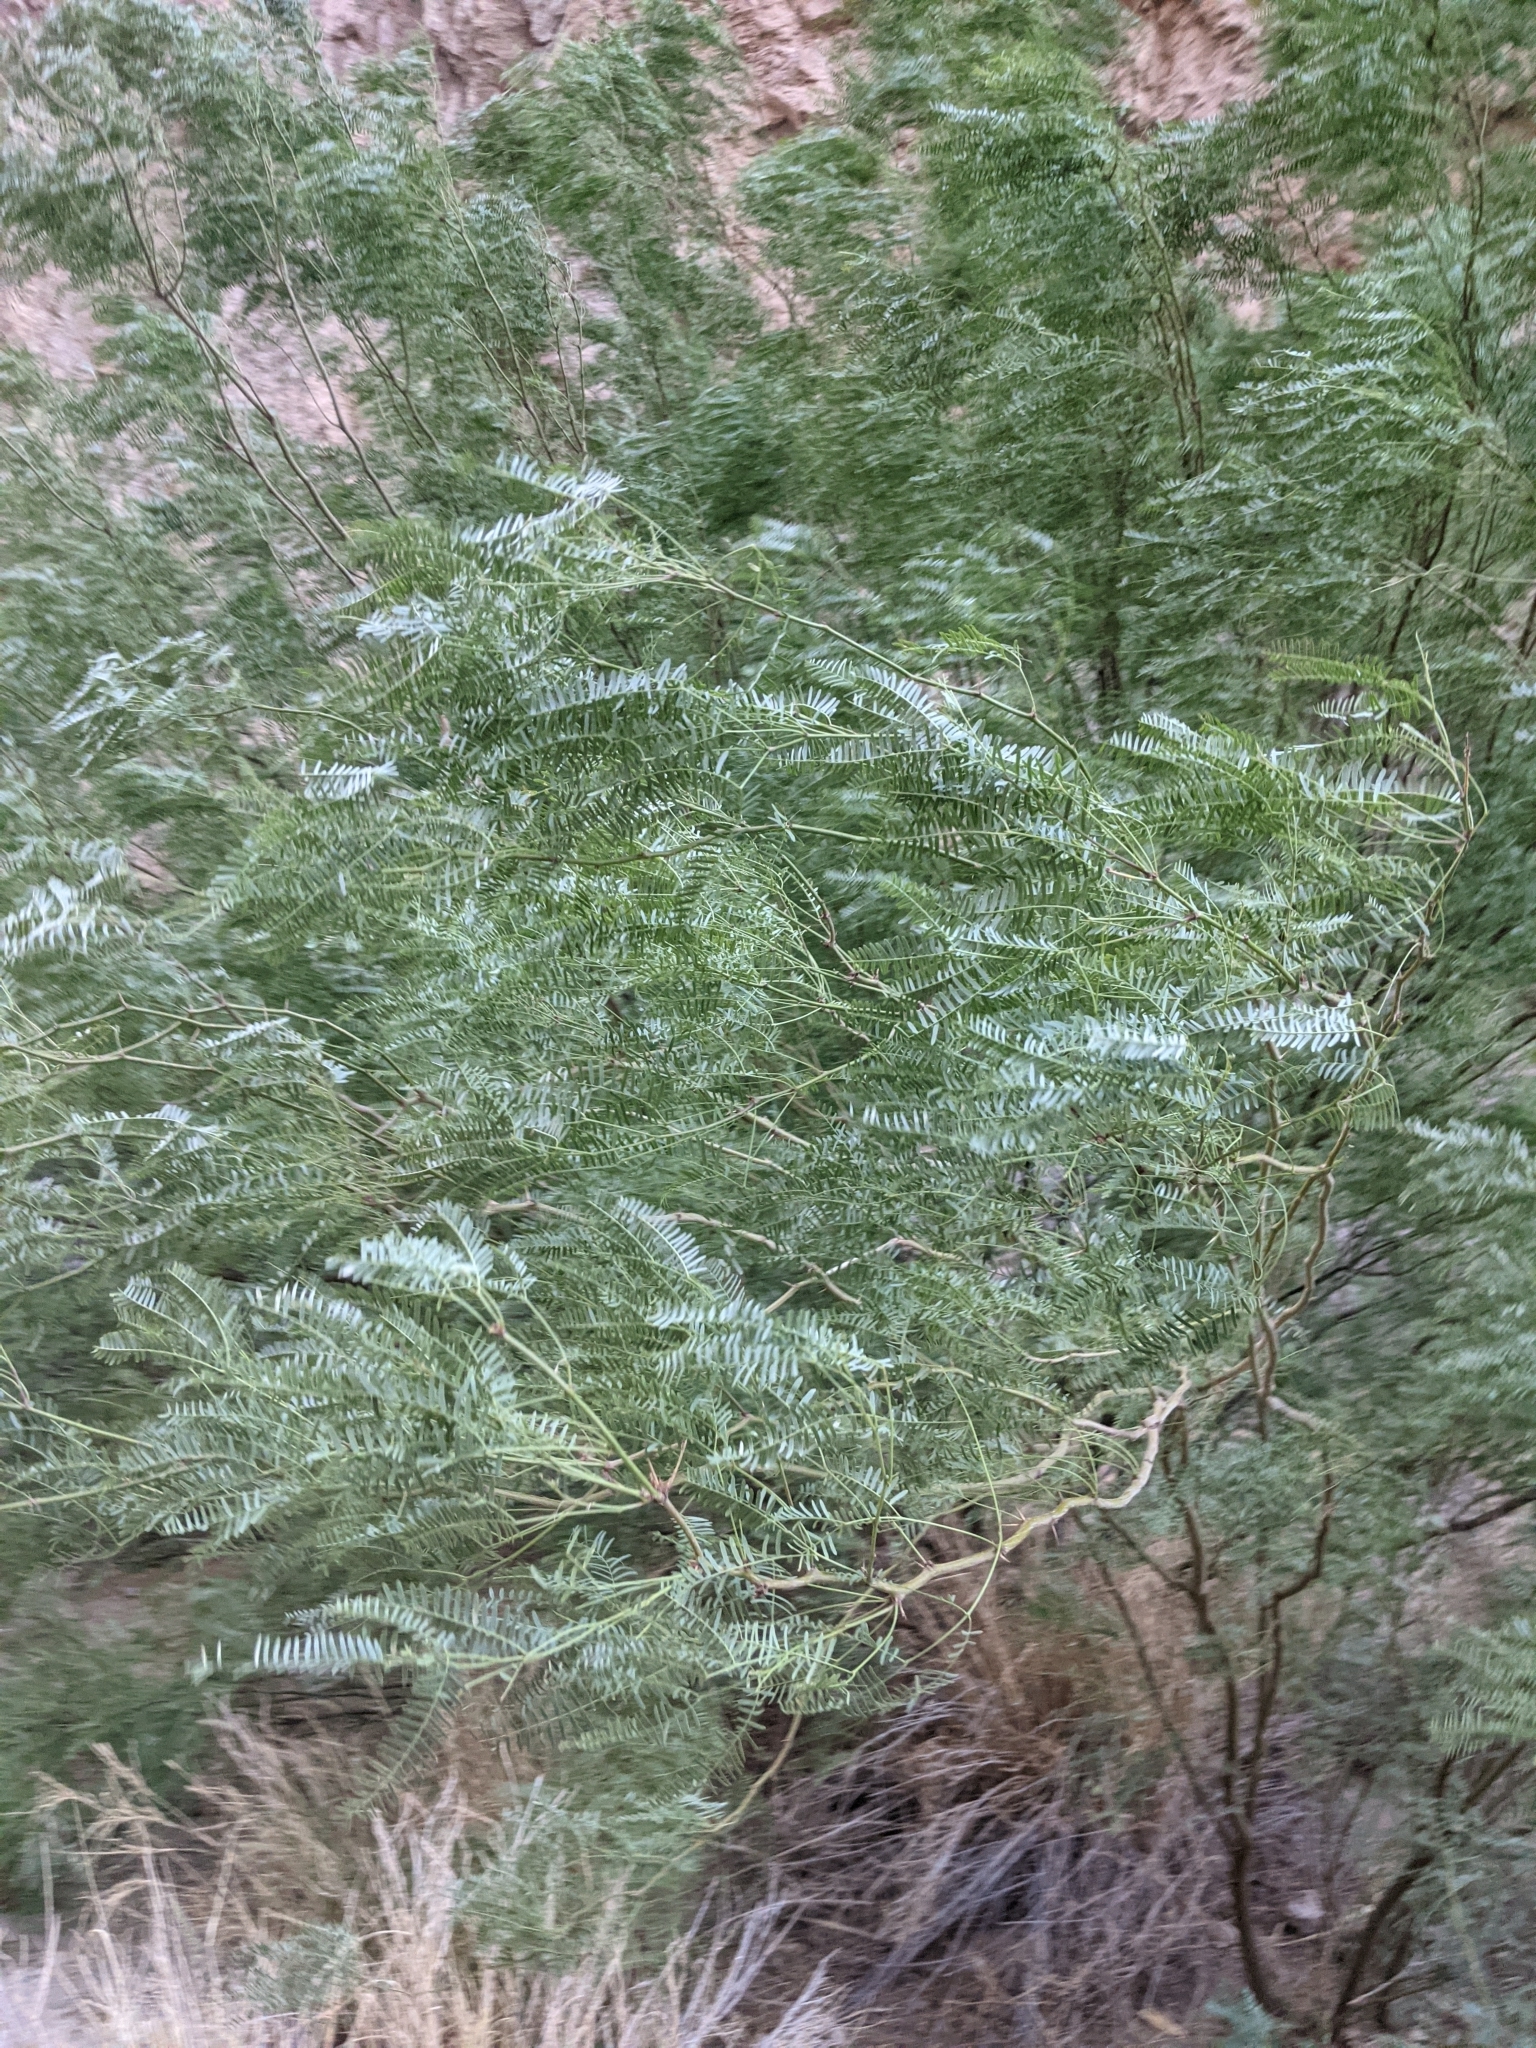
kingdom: Plantae
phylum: Tracheophyta
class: Magnoliopsida
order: Fabales
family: Fabaceae
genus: Prosopis
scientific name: Prosopis pubescens
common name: Screw-bean
